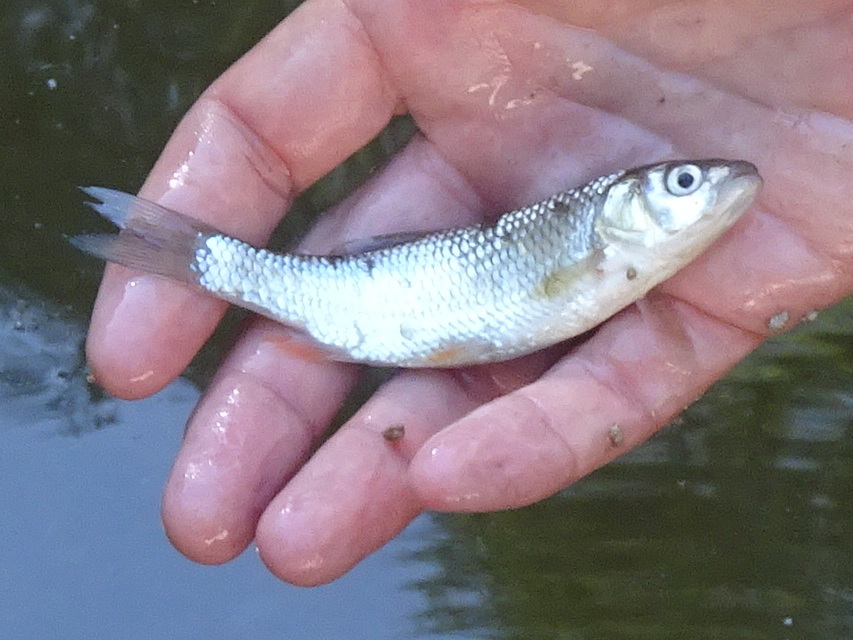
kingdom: Animalia
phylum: Chordata
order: Cypriniformes
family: Cyprinidae
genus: Squalius
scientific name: Squalius cephalus
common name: Chub
